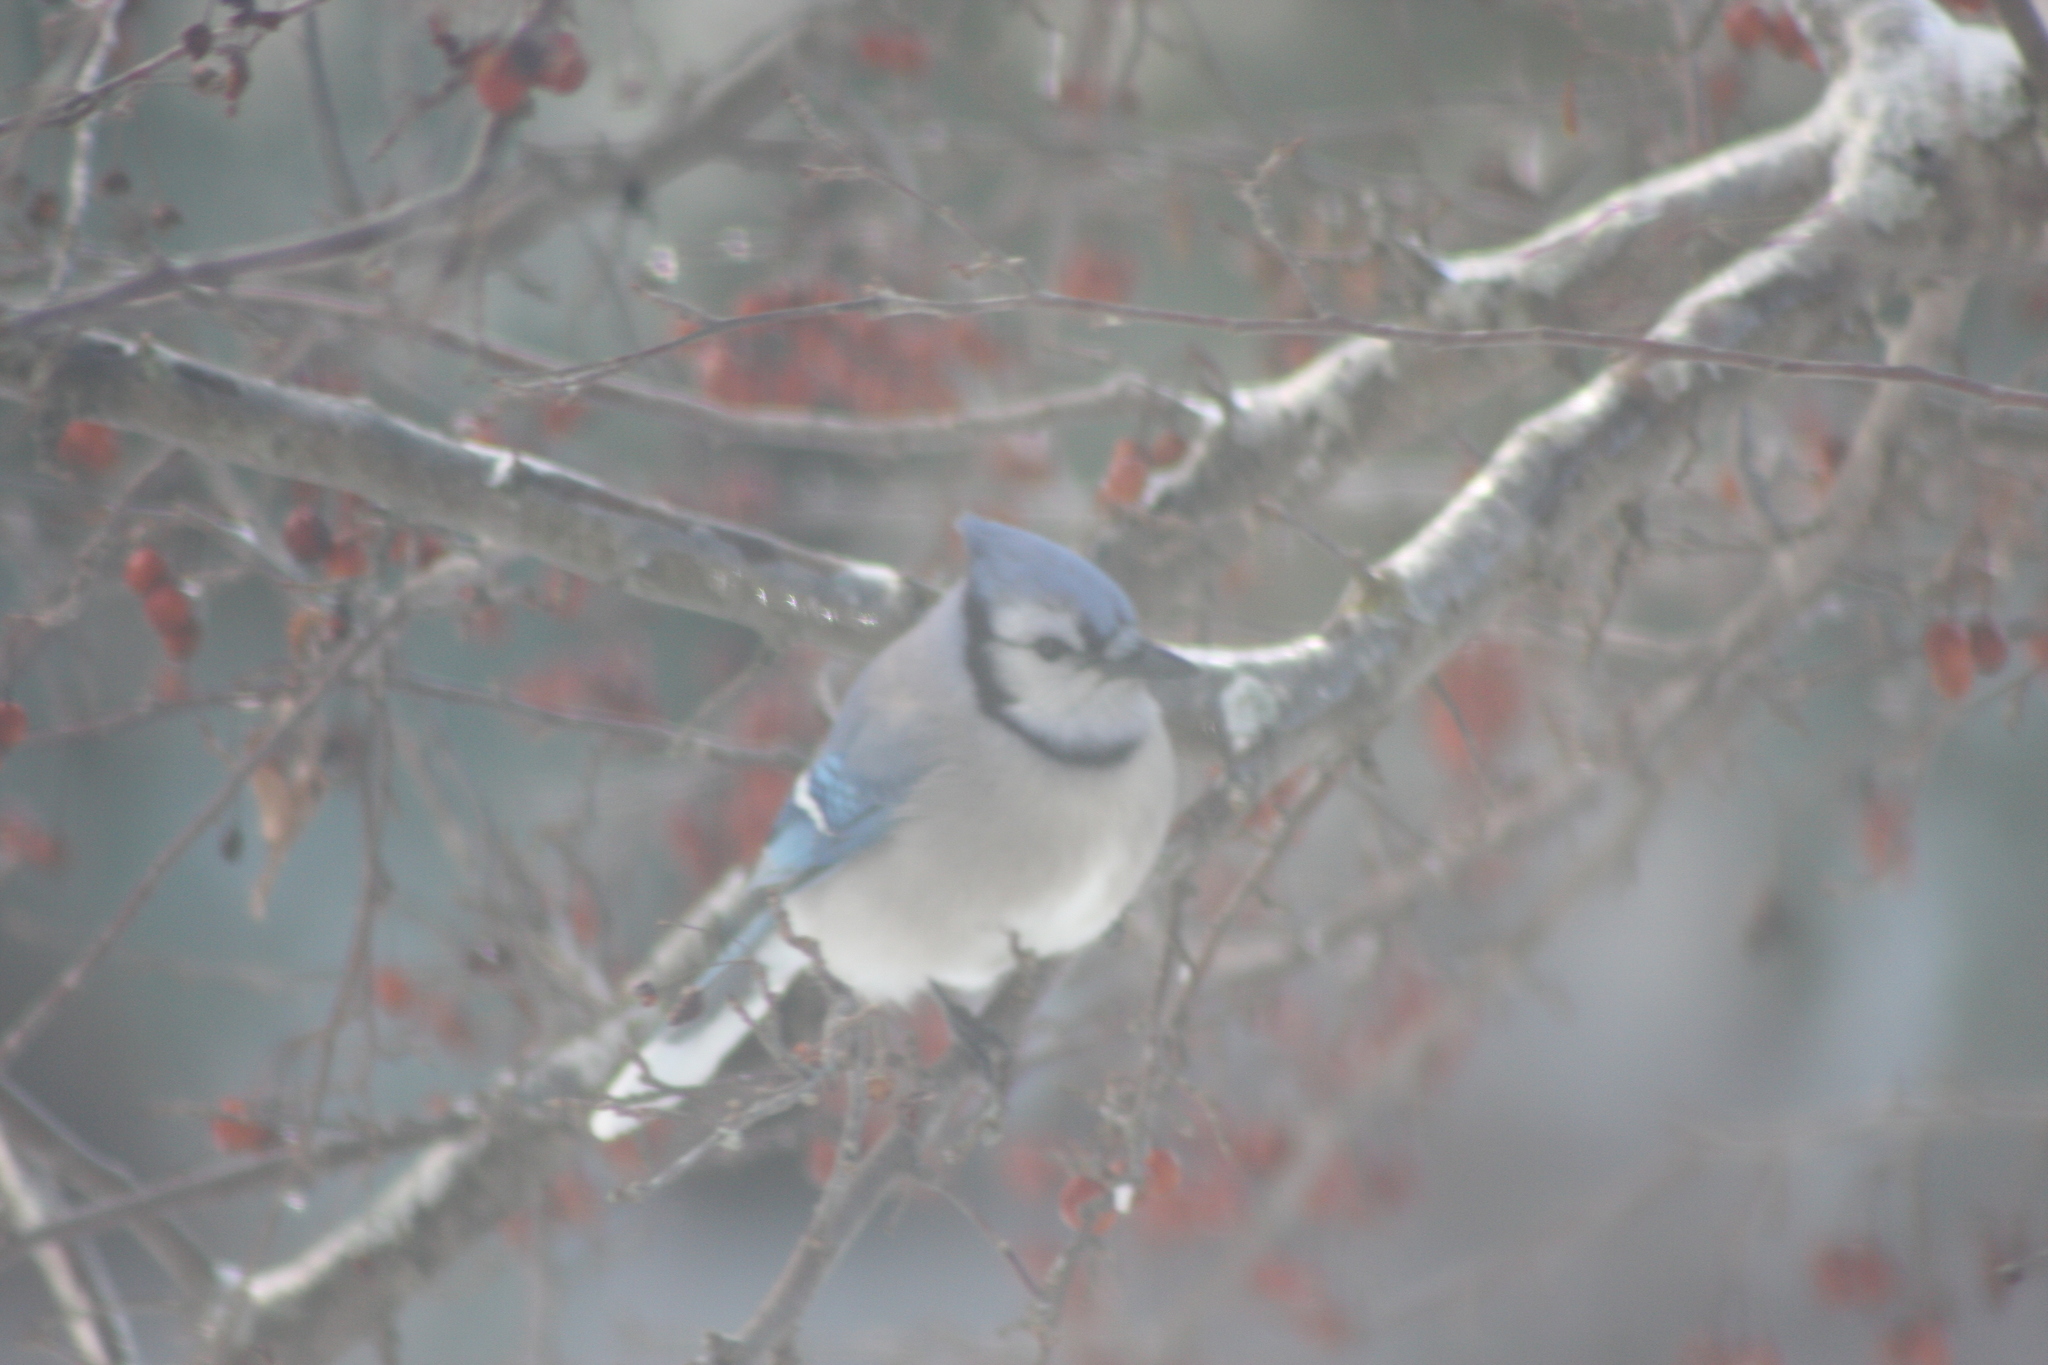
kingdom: Animalia
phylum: Chordata
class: Aves
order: Passeriformes
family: Corvidae
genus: Cyanocitta
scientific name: Cyanocitta cristata
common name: Blue jay
